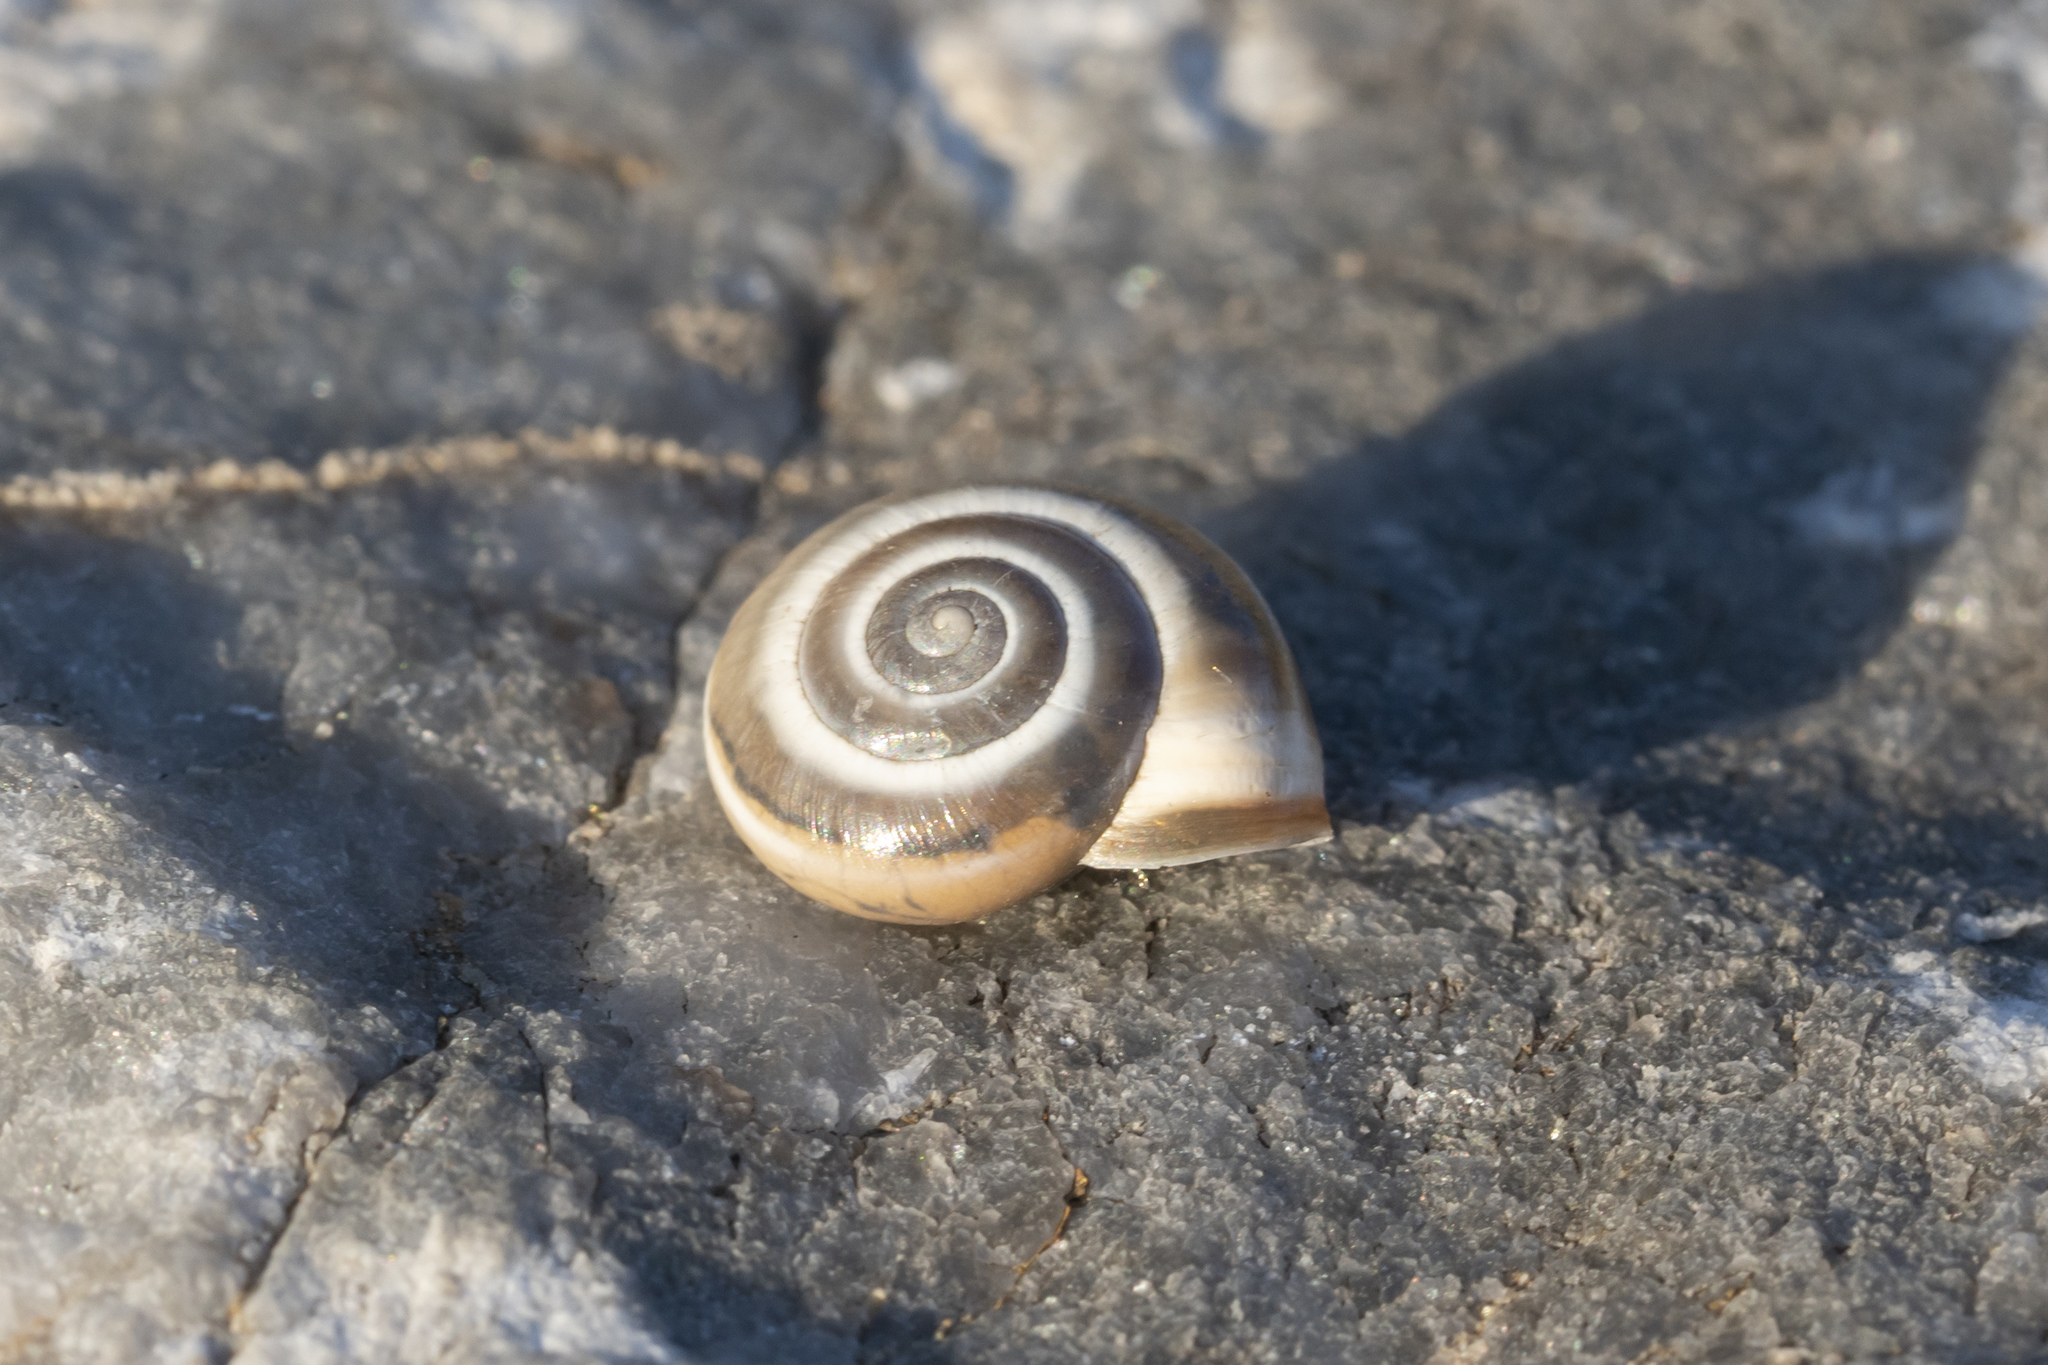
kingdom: Animalia
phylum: Mollusca
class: Gastropoda
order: Stylommatophora
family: Hygromiidae
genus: Monacha
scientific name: Monacha syriaca
